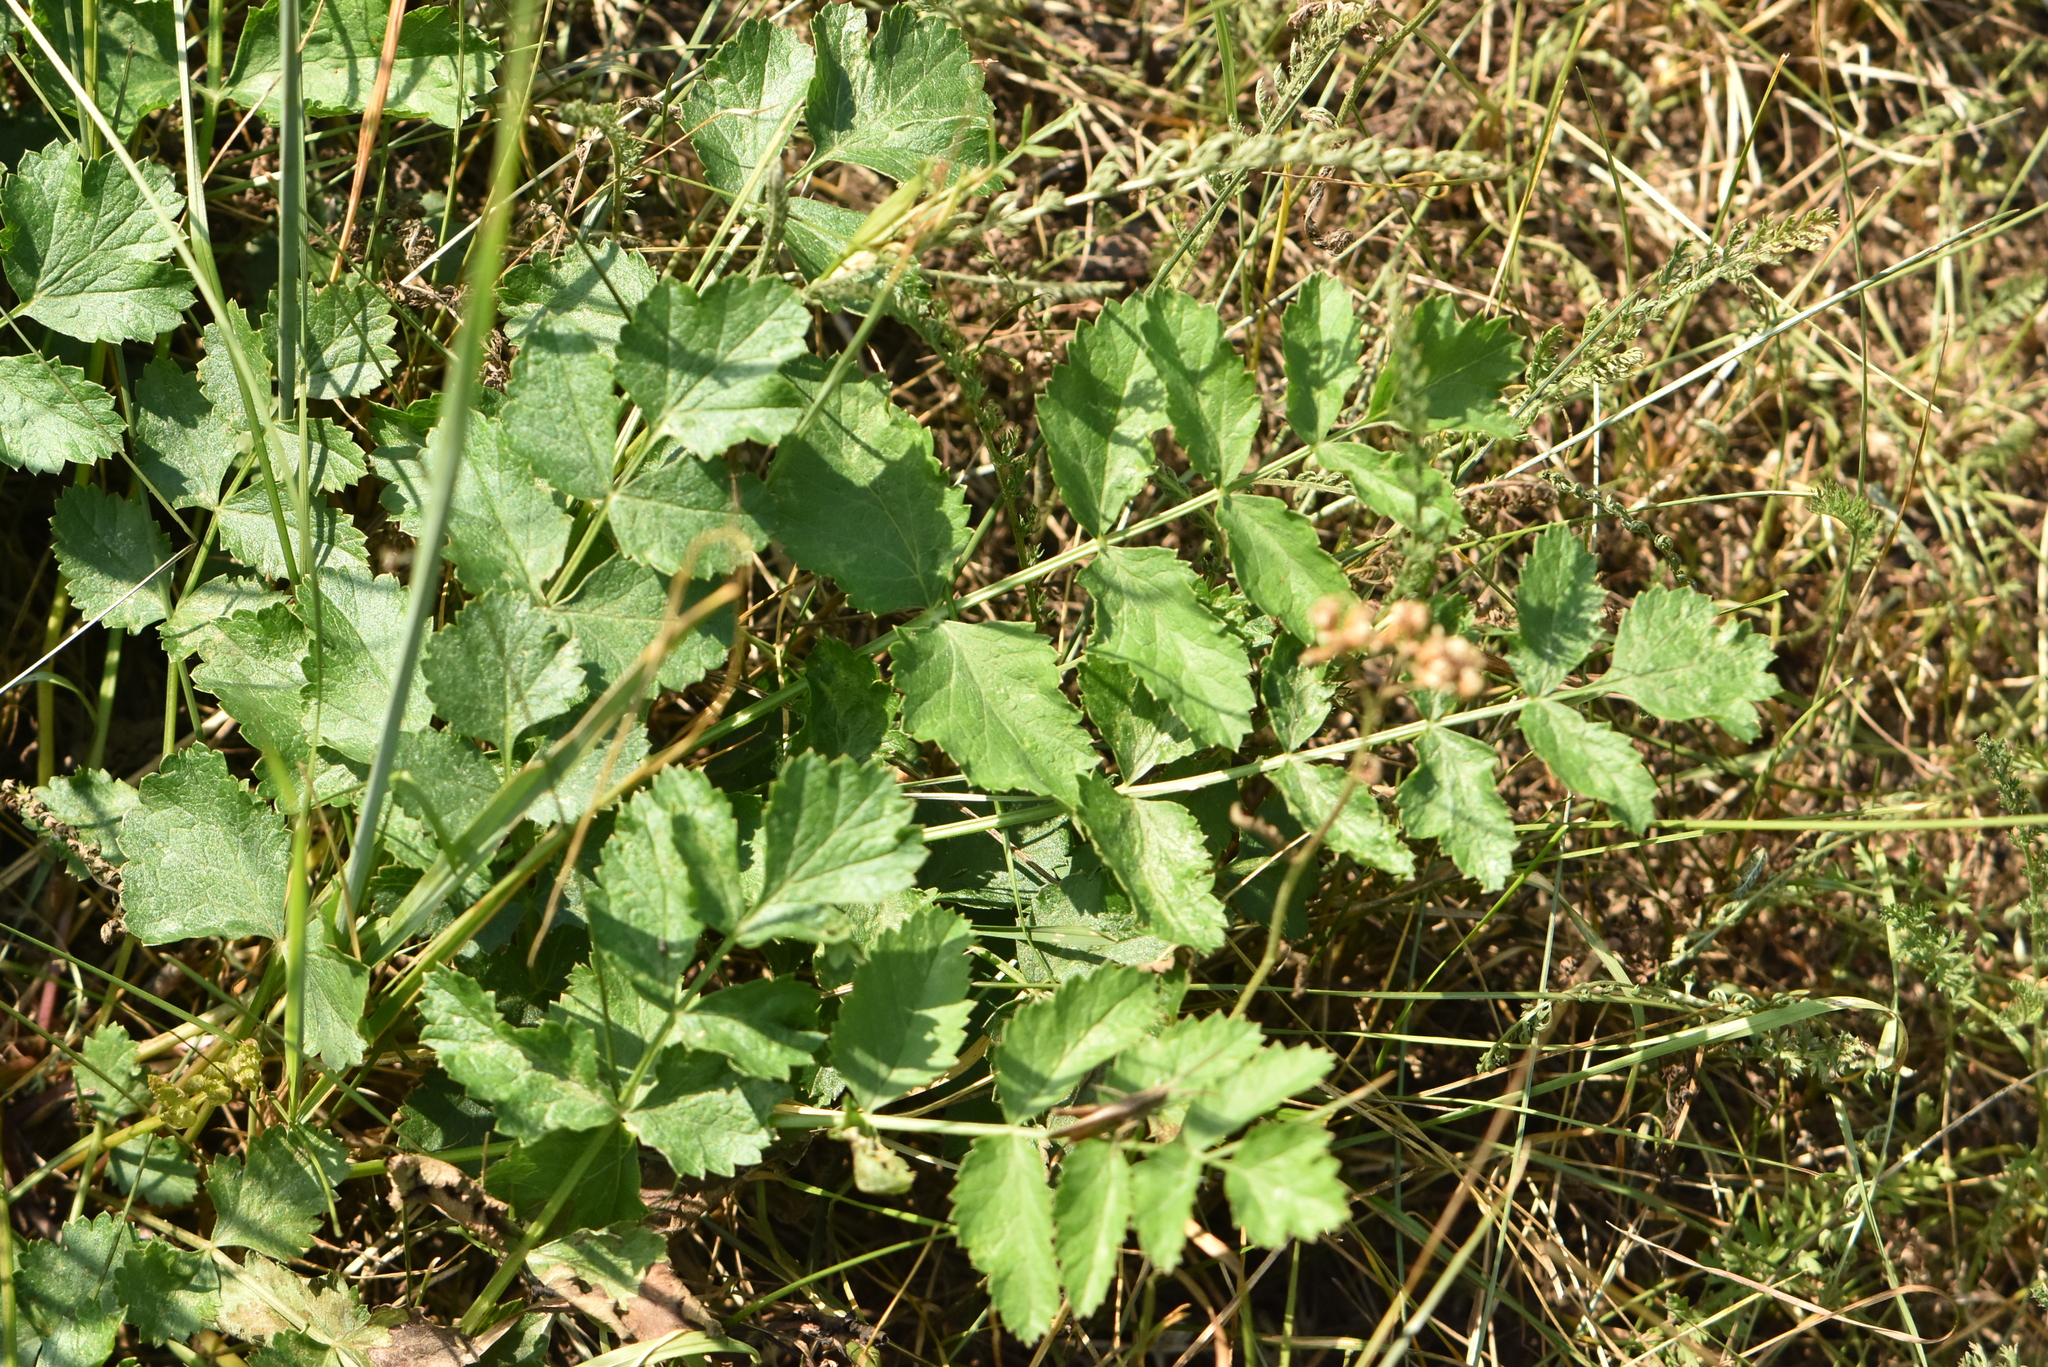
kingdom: Plantae
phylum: Tracheophyta
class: Magnoliopsida
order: Apiales
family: Apiaceae
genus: Pimpinella
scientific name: Pimpinella saxifraga
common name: Burnet-saxifrage
